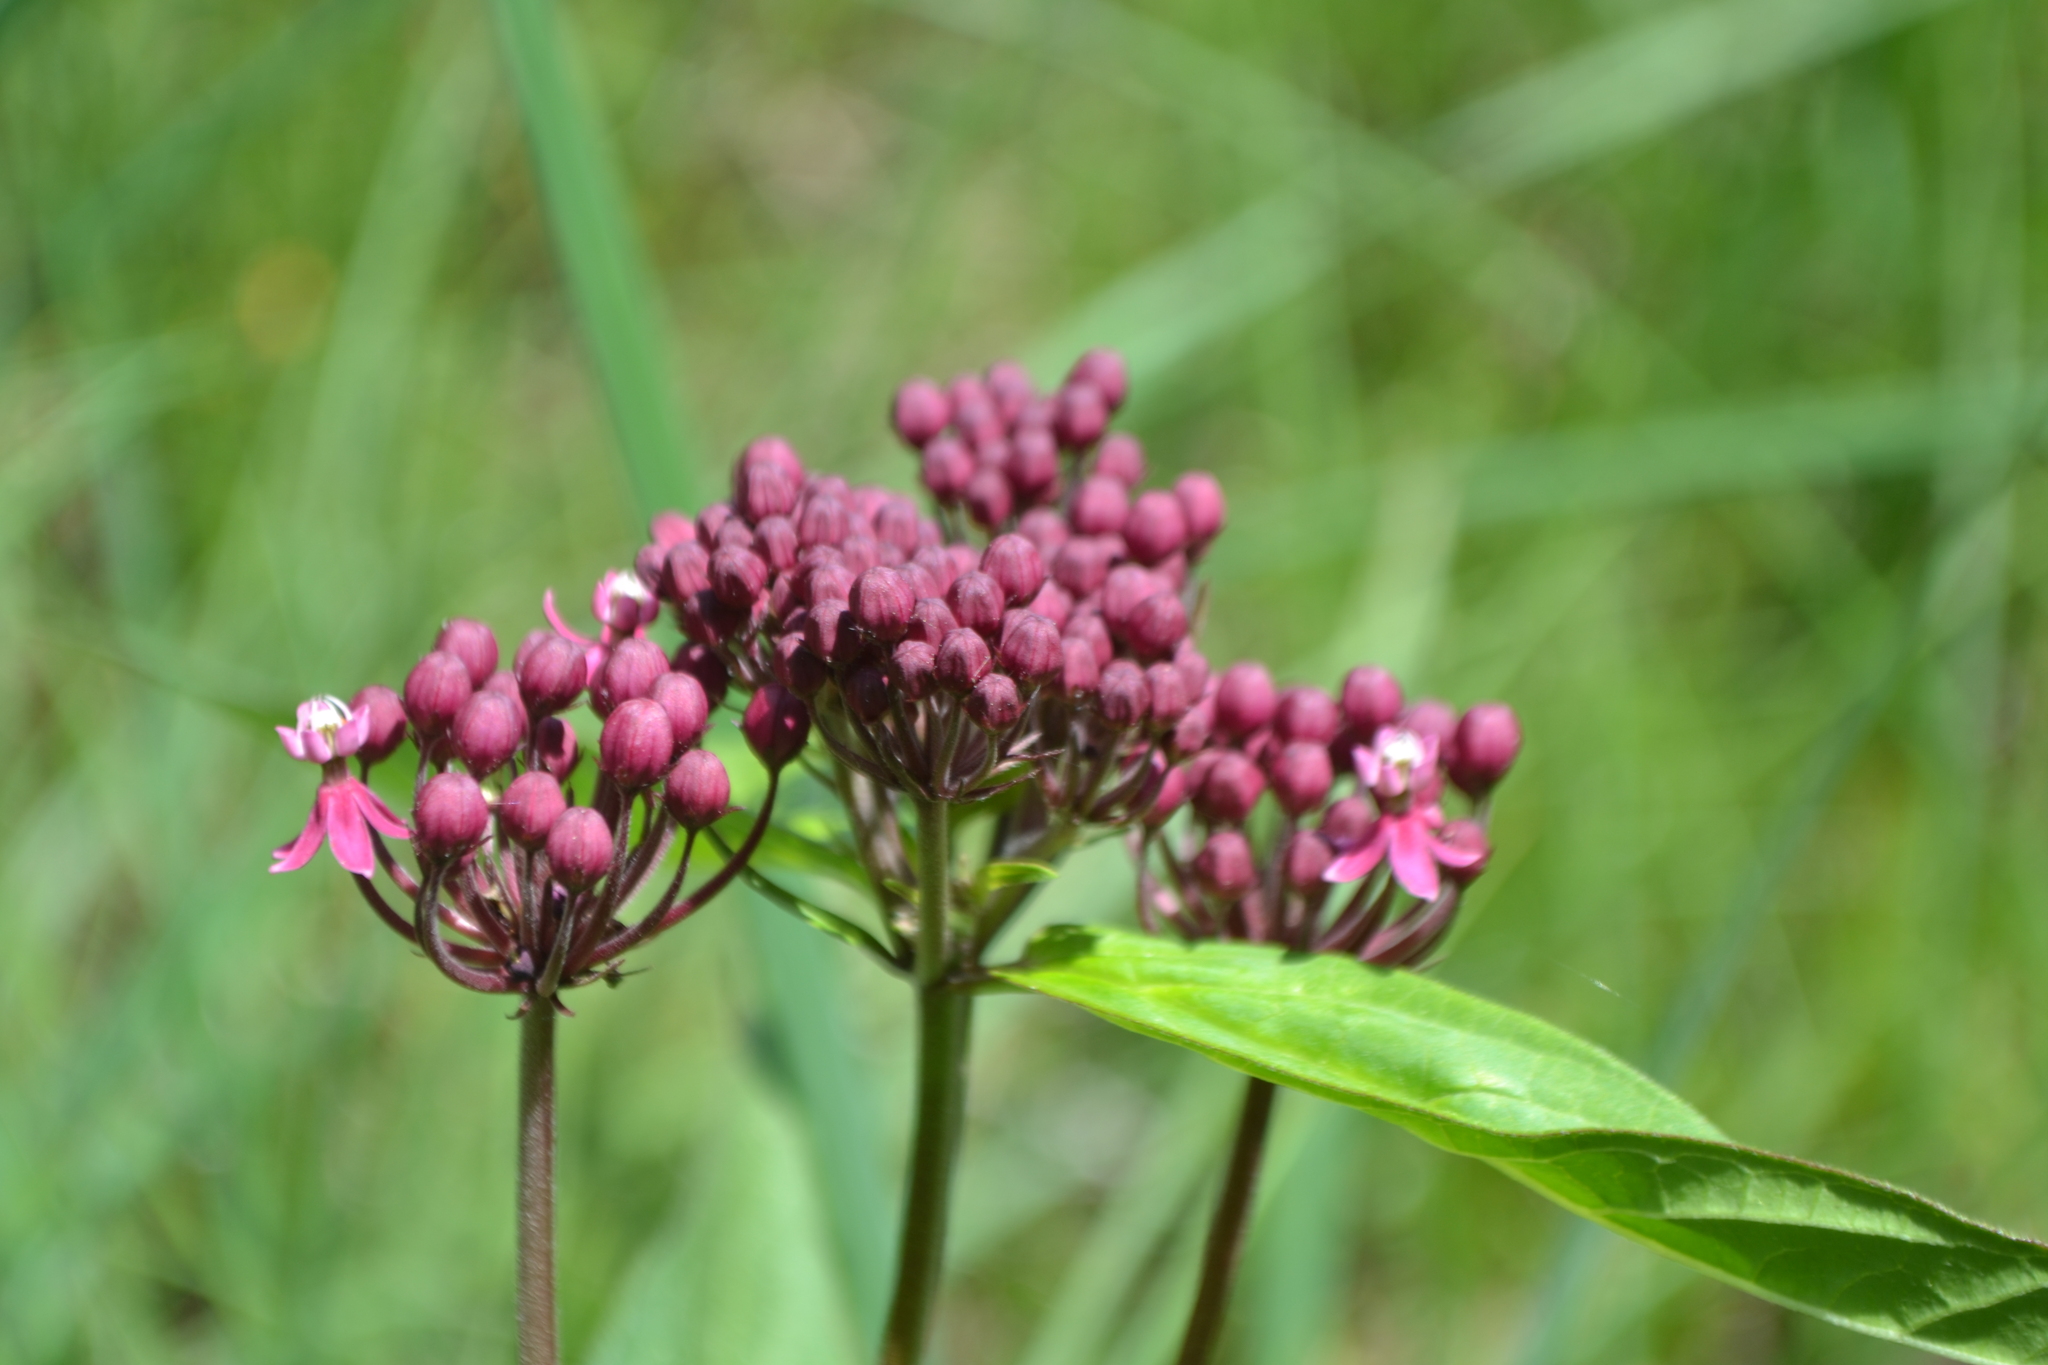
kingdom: Plantae
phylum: Tracheophyta
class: Magnoliopsida
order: Gentianales
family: Apocynaceae
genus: Asclepias
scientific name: Asclepias incarnata
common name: Swamp milkweed
